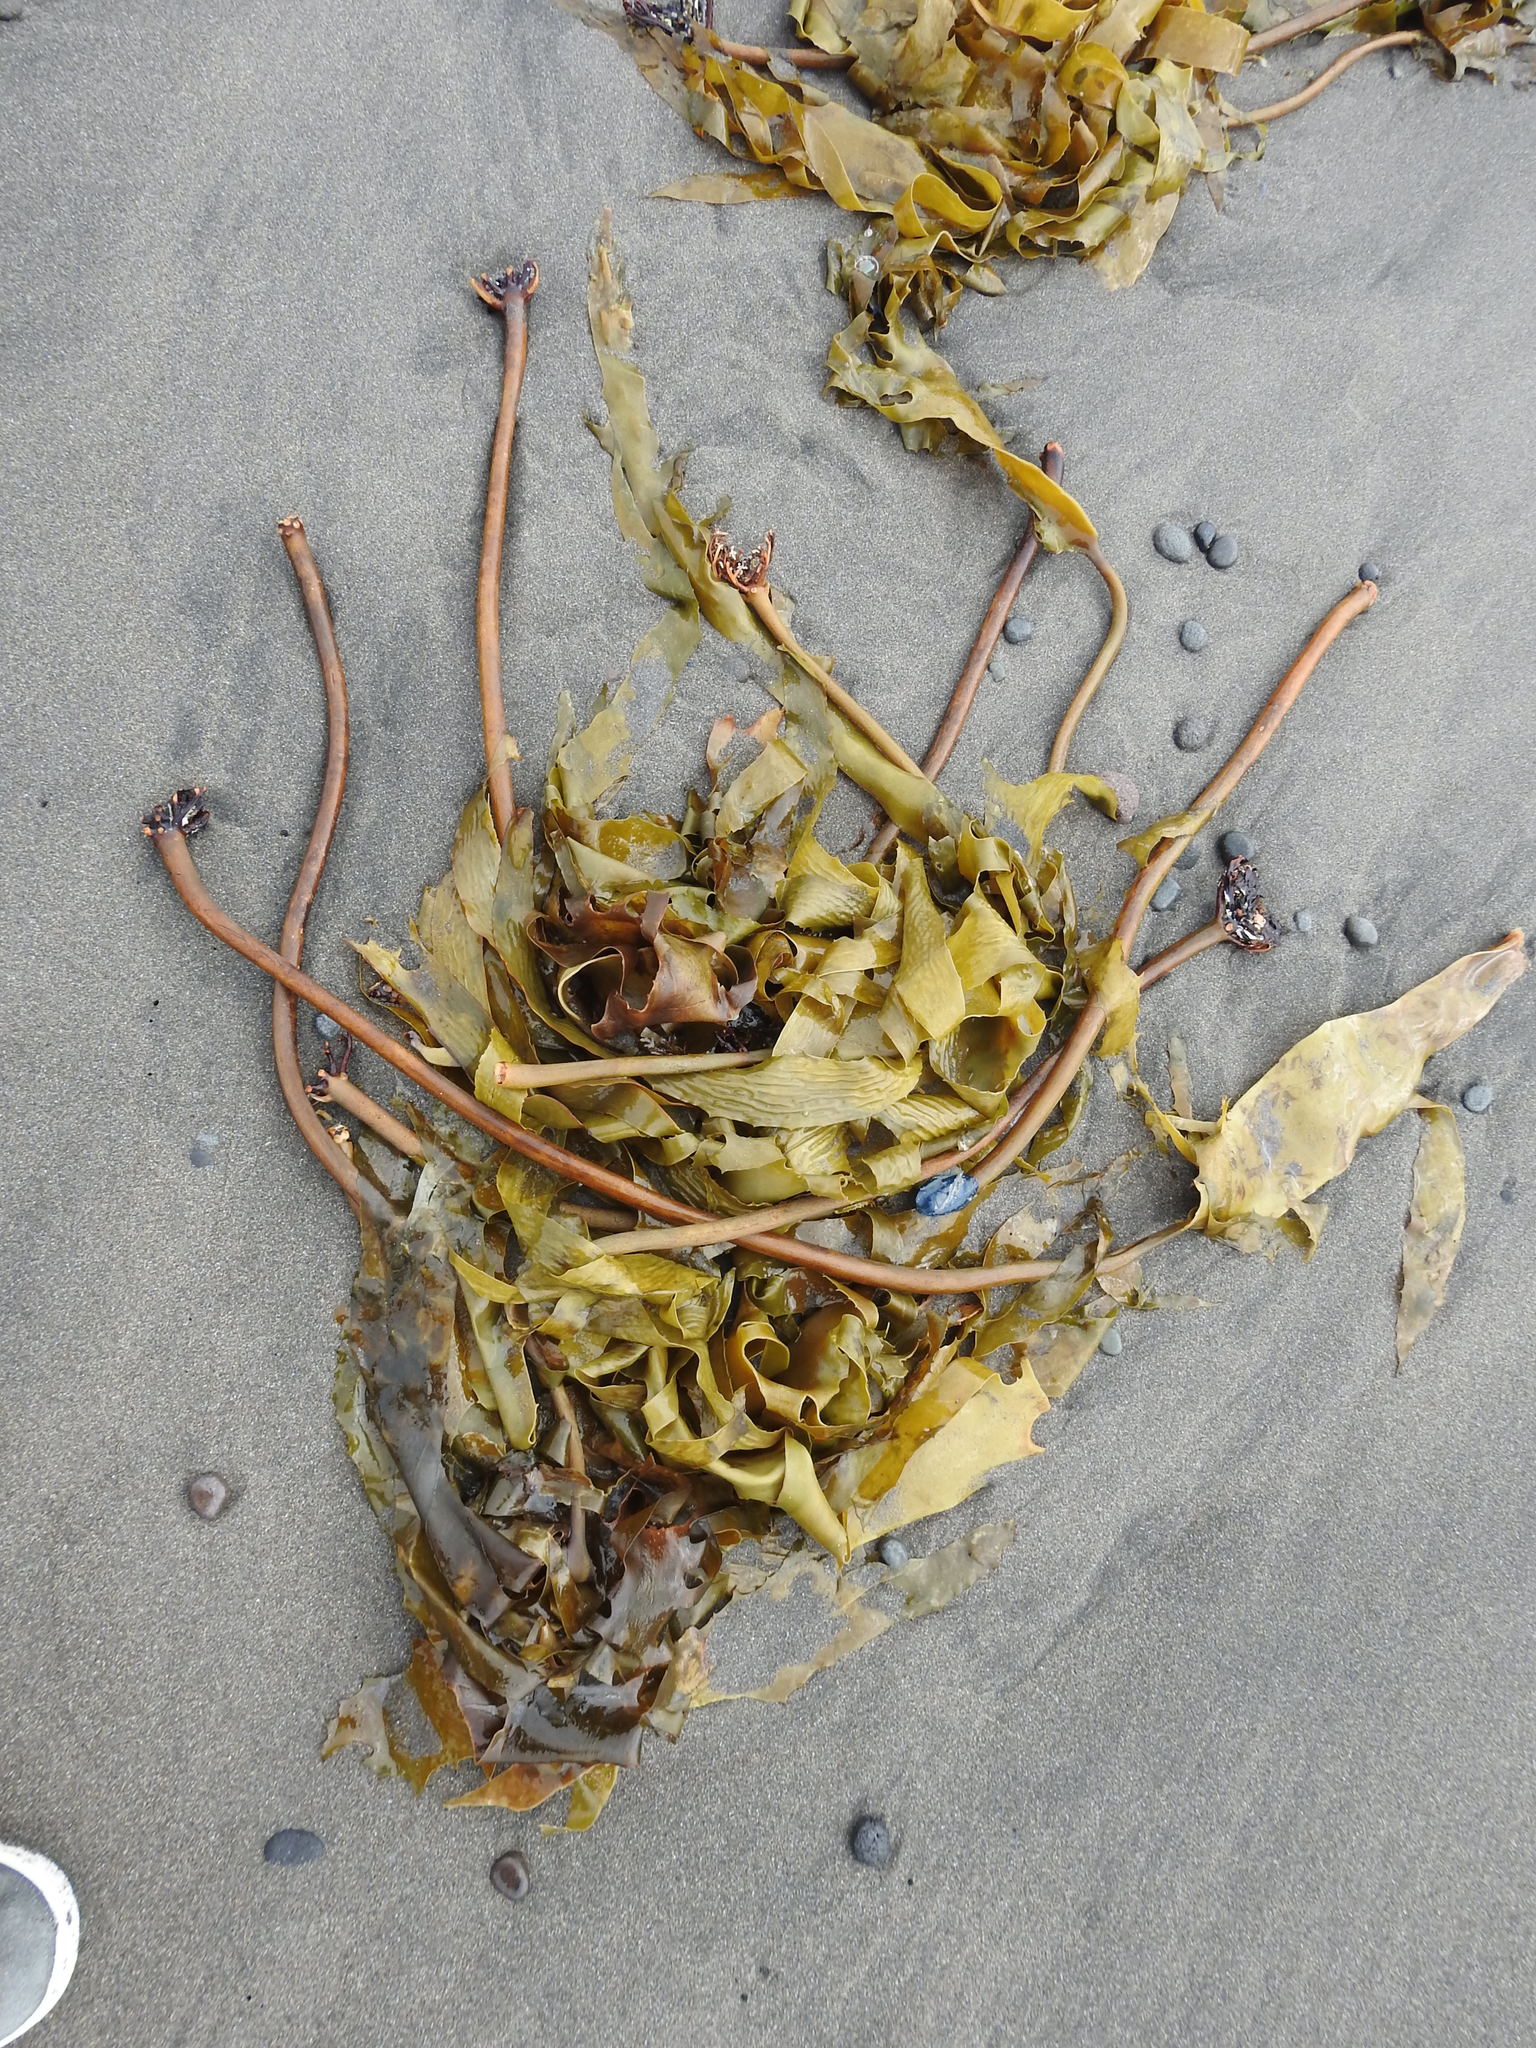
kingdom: Chromista
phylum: Ochrophyta
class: Phaeophyceae
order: Laminariales
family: Lessoniaceae
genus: Ecklonia
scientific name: Ecklonia radiata
